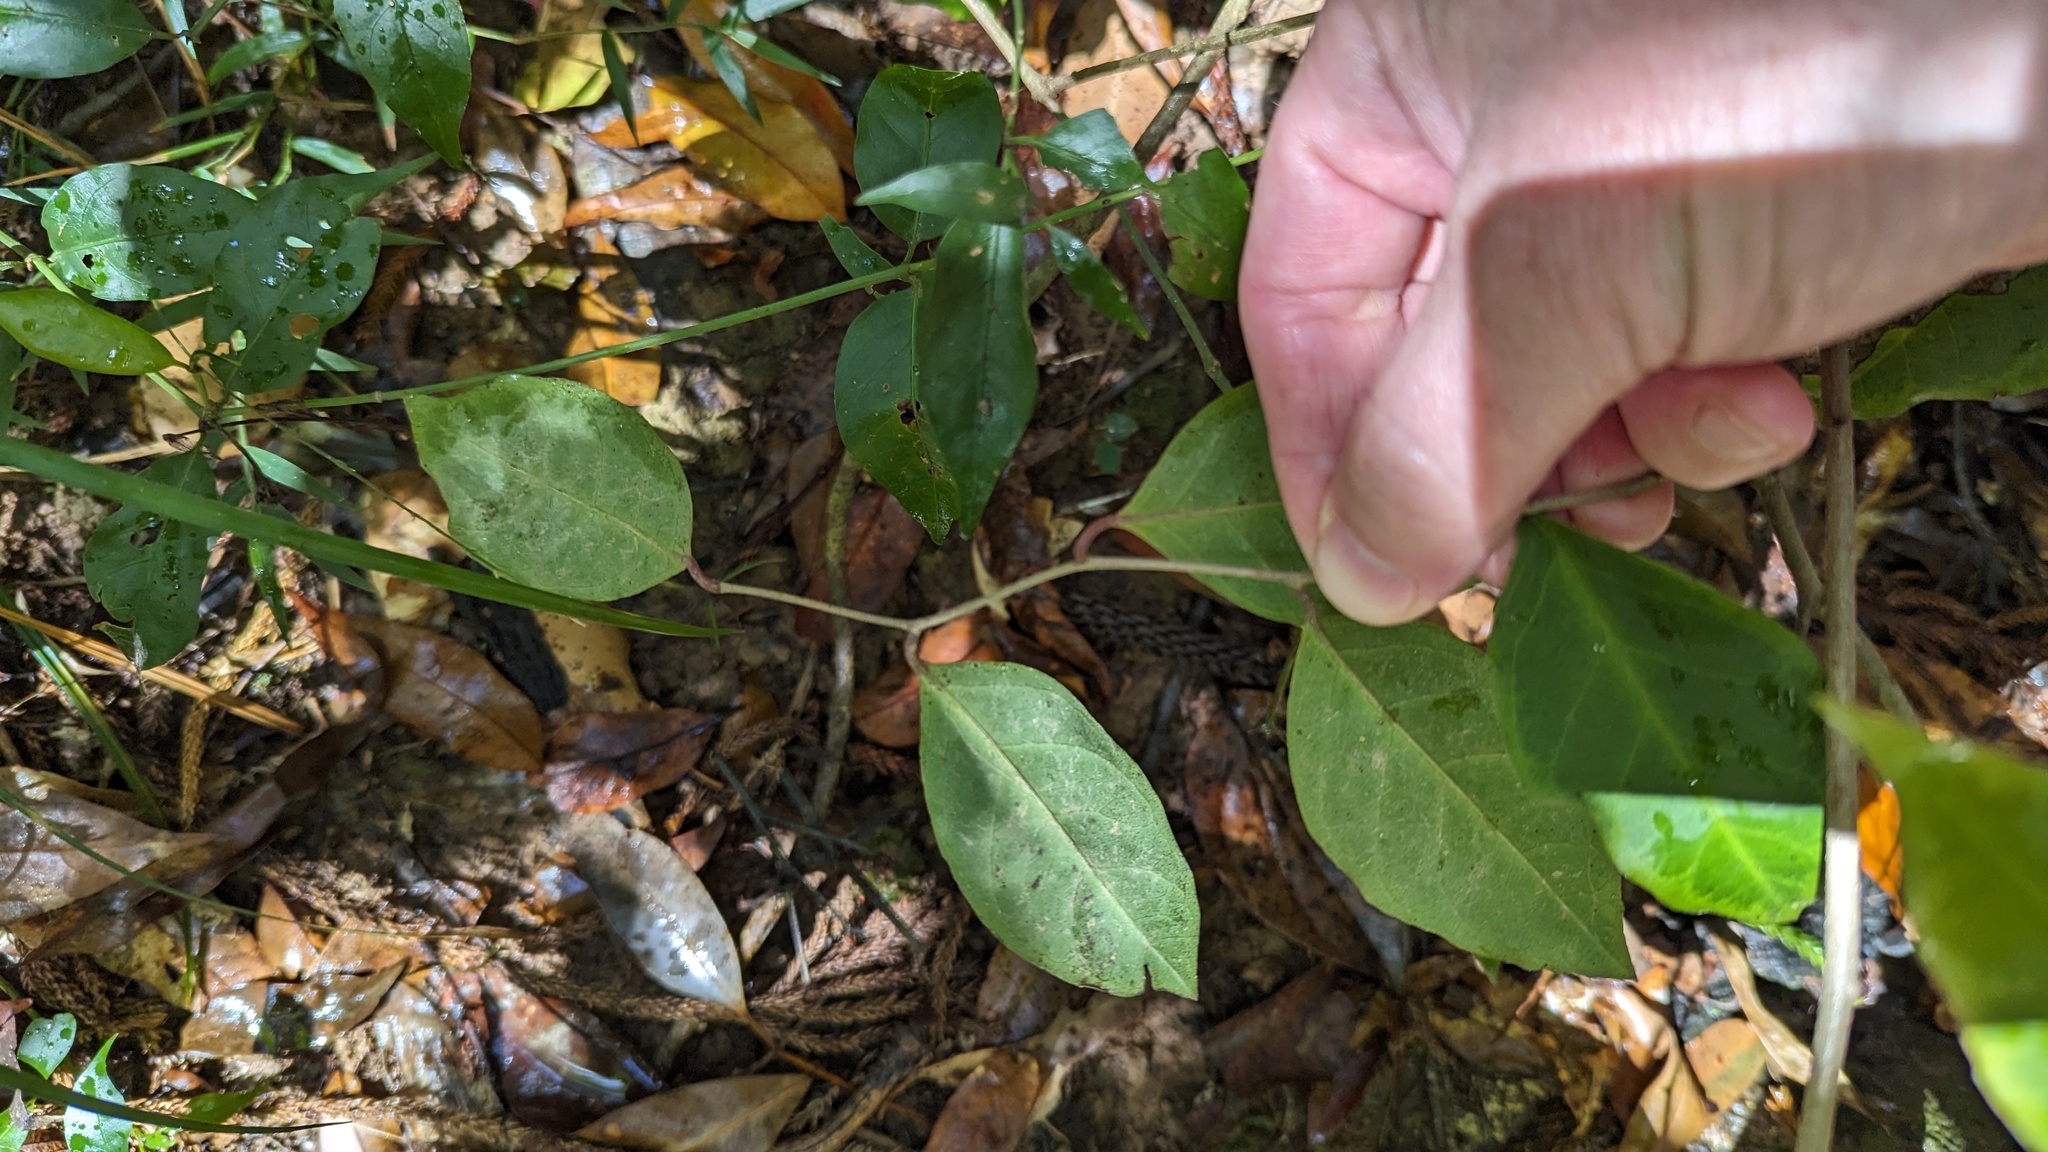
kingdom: Plantae
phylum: Tracheophyta
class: Magnoliopsida
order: Ericales
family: Primulaceae
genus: Embelia
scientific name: Embelia australiana
